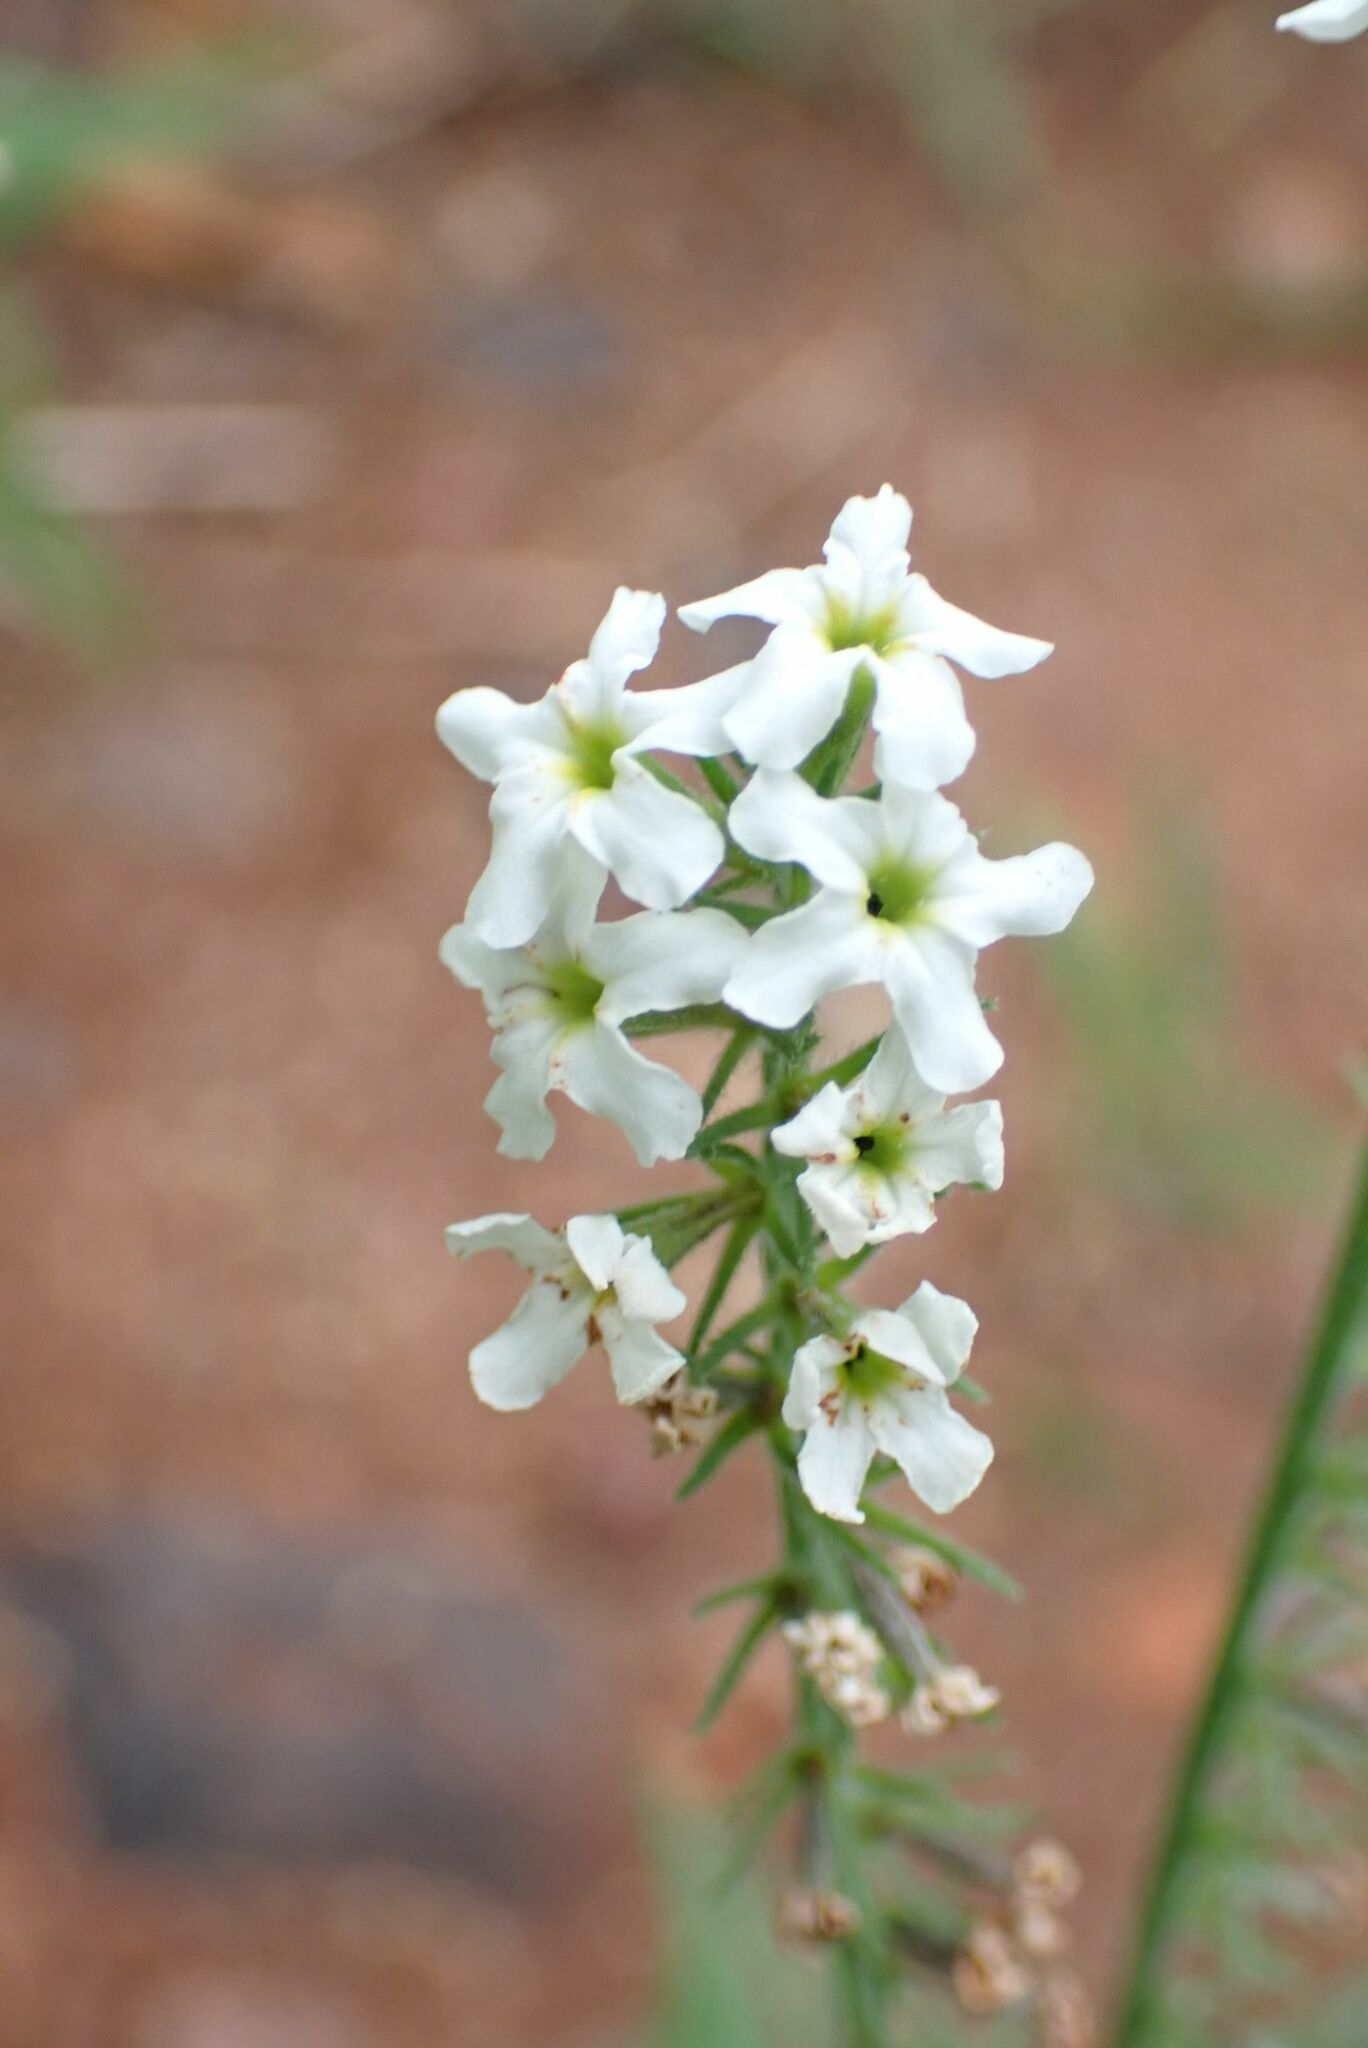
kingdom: Plantae
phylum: Tracheophyta
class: Magnoliopsida
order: Boraginales
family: Heliotropiaceae
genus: Heliotropium
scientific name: Heliotropium steudneri
